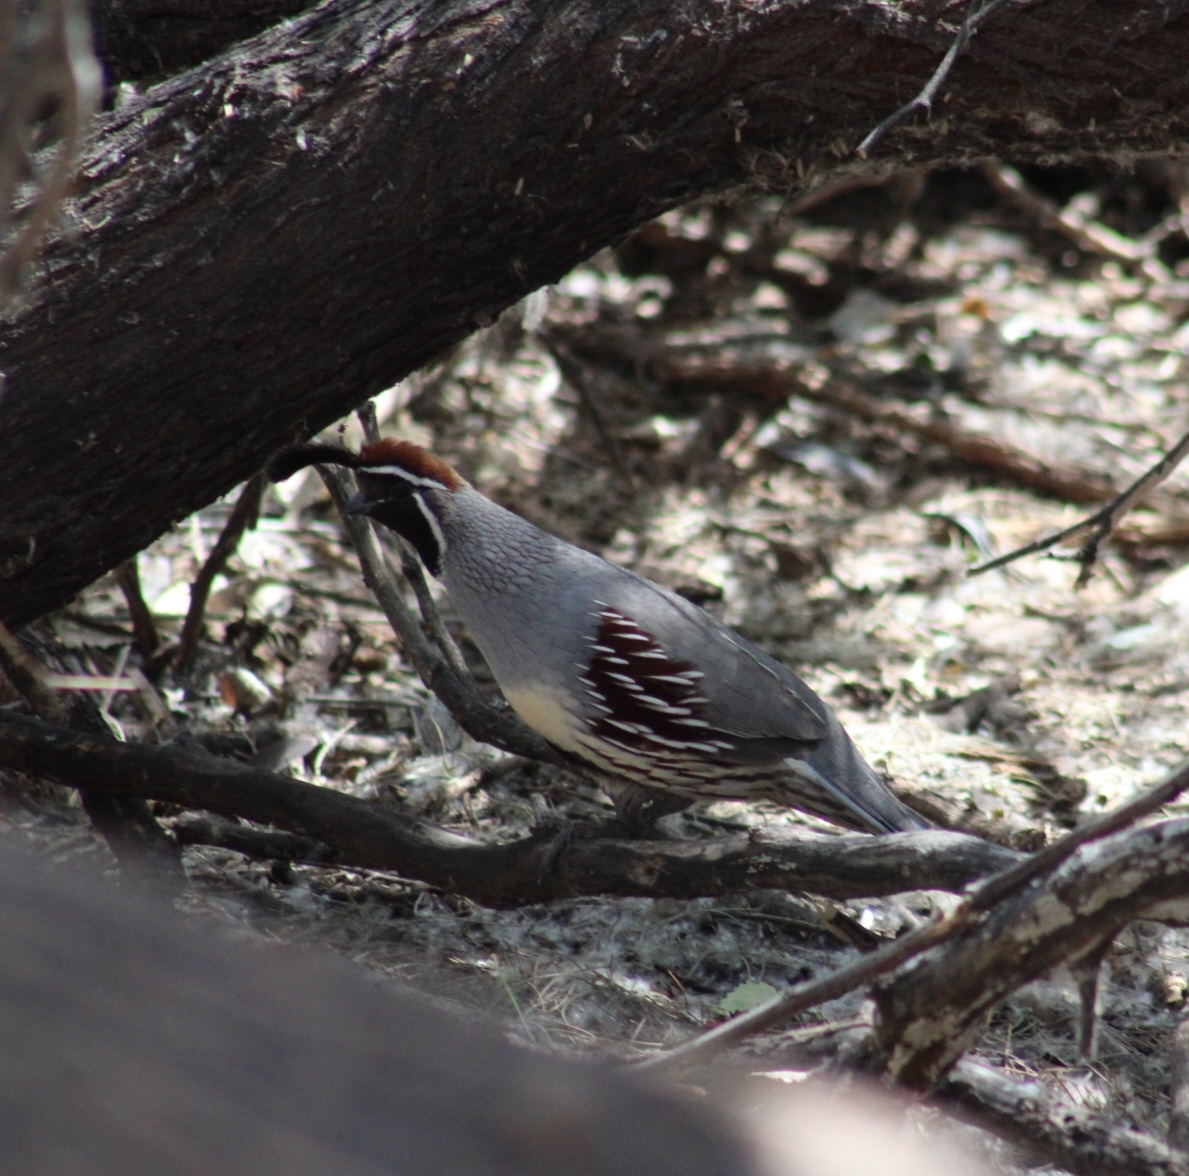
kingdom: Animalia
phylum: Chordata
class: Aves
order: Galliformes
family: Odontophoridae
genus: Callipepla
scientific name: Callipepla gambelii
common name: Gambel's quail
